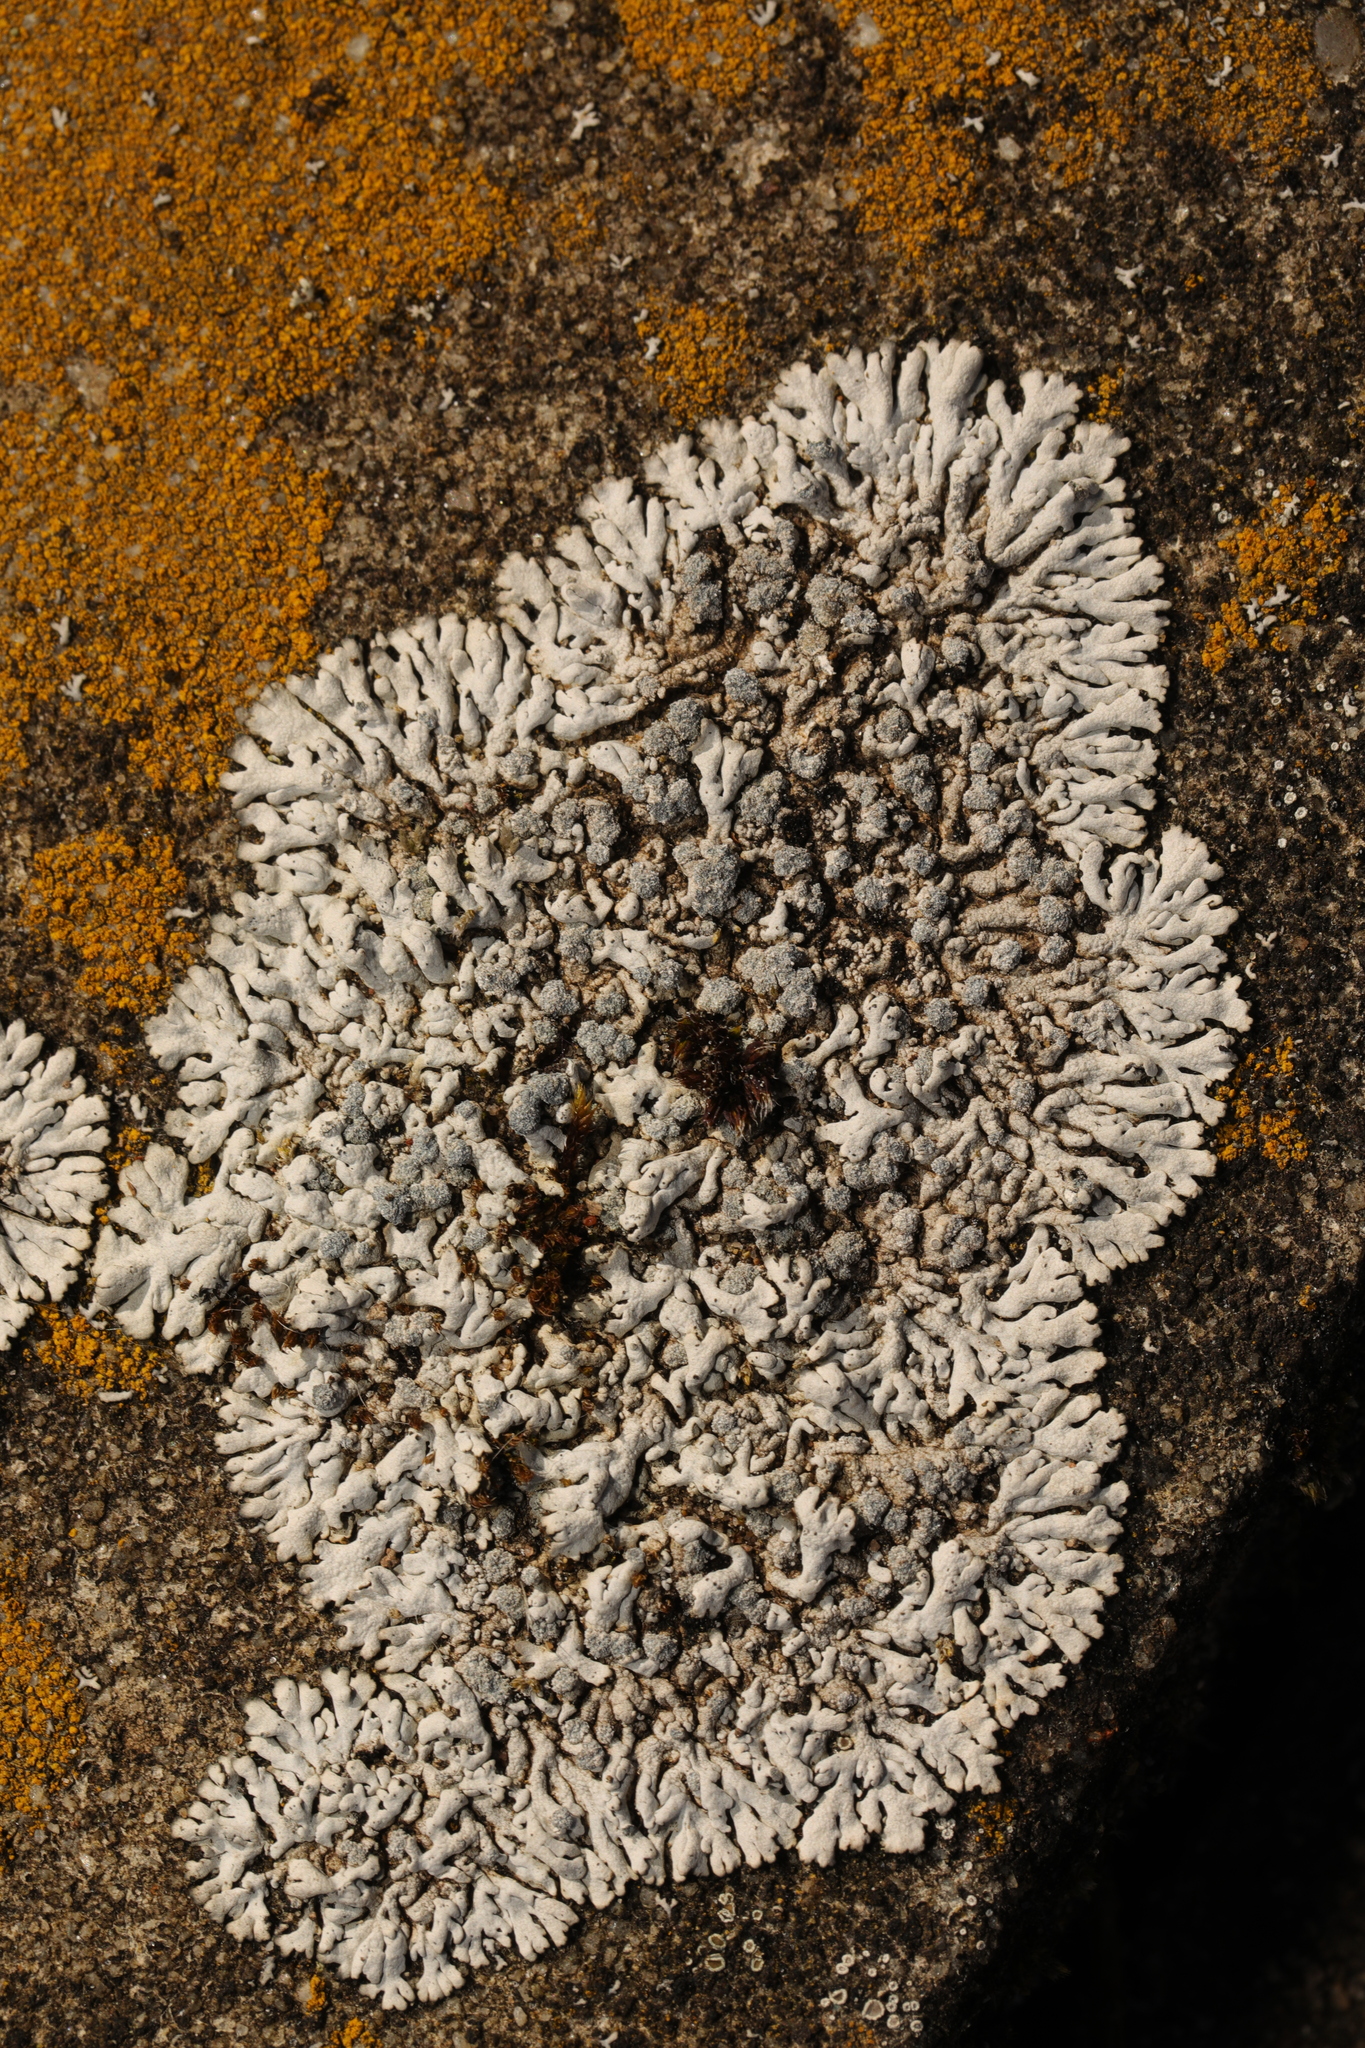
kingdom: Fungi
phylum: Ascomycota
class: Lecanoromycetes
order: Caliciales
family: Physciaceae
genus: Physcia
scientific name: Physcia caesia
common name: Blue-gray rosette lichen
